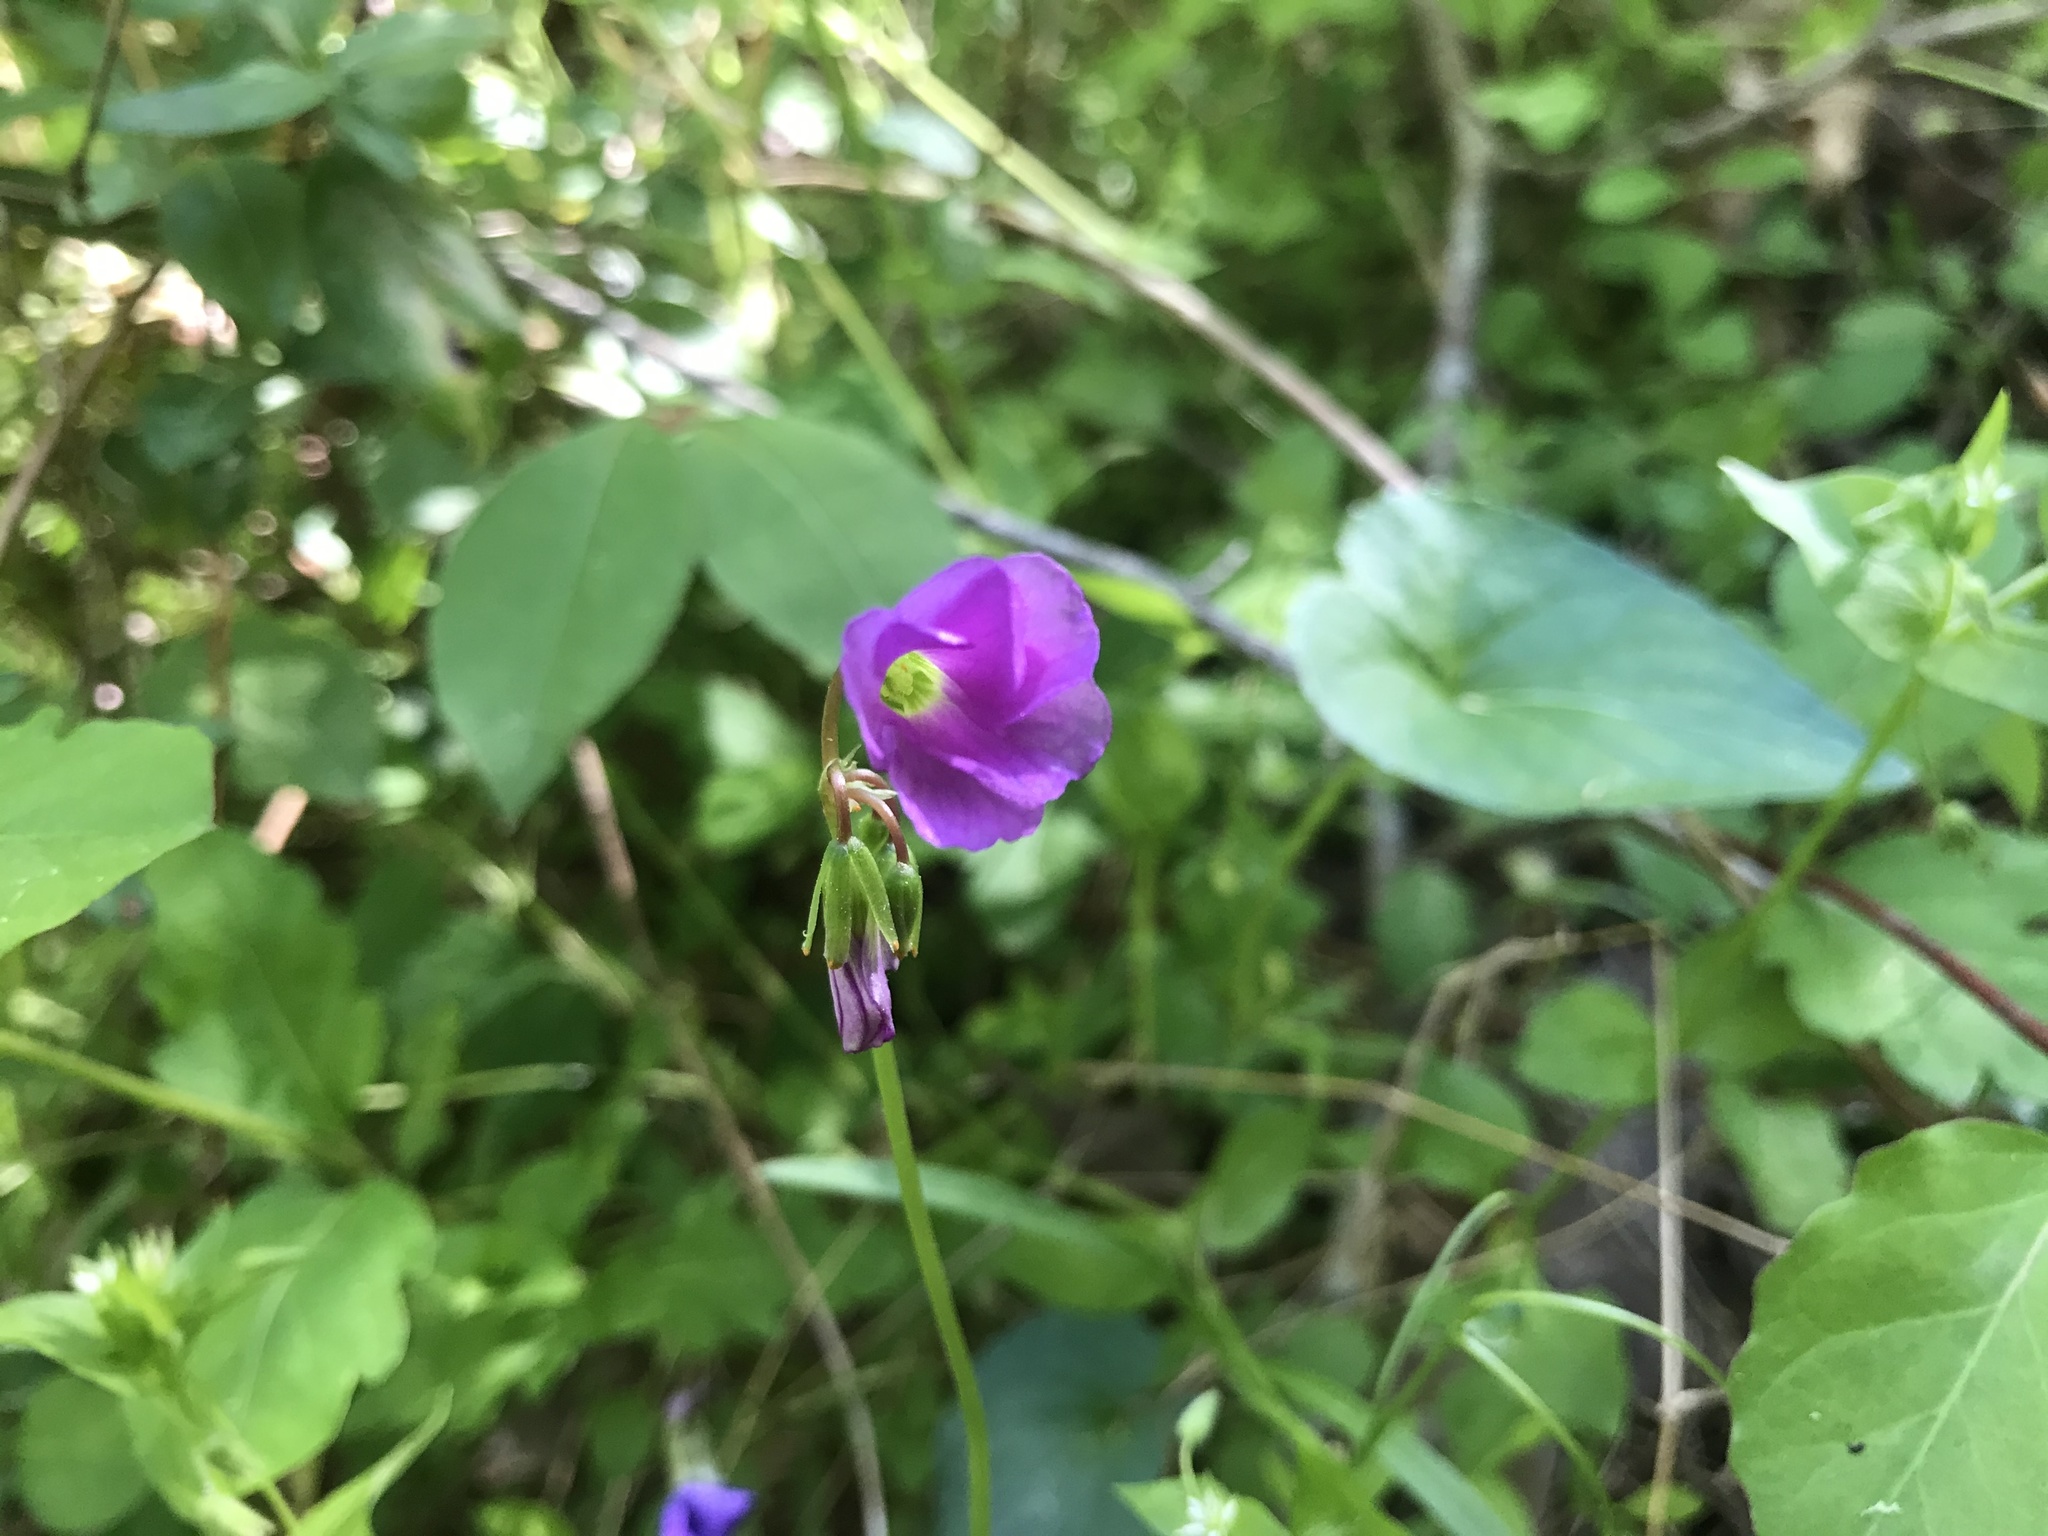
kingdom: Plantae
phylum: Tracheophyta
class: Magnoliopsida
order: Oxalidales
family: Oxalidaceae
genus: Oxalis
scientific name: Oxalis violacea
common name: Violet wood-sorrel
